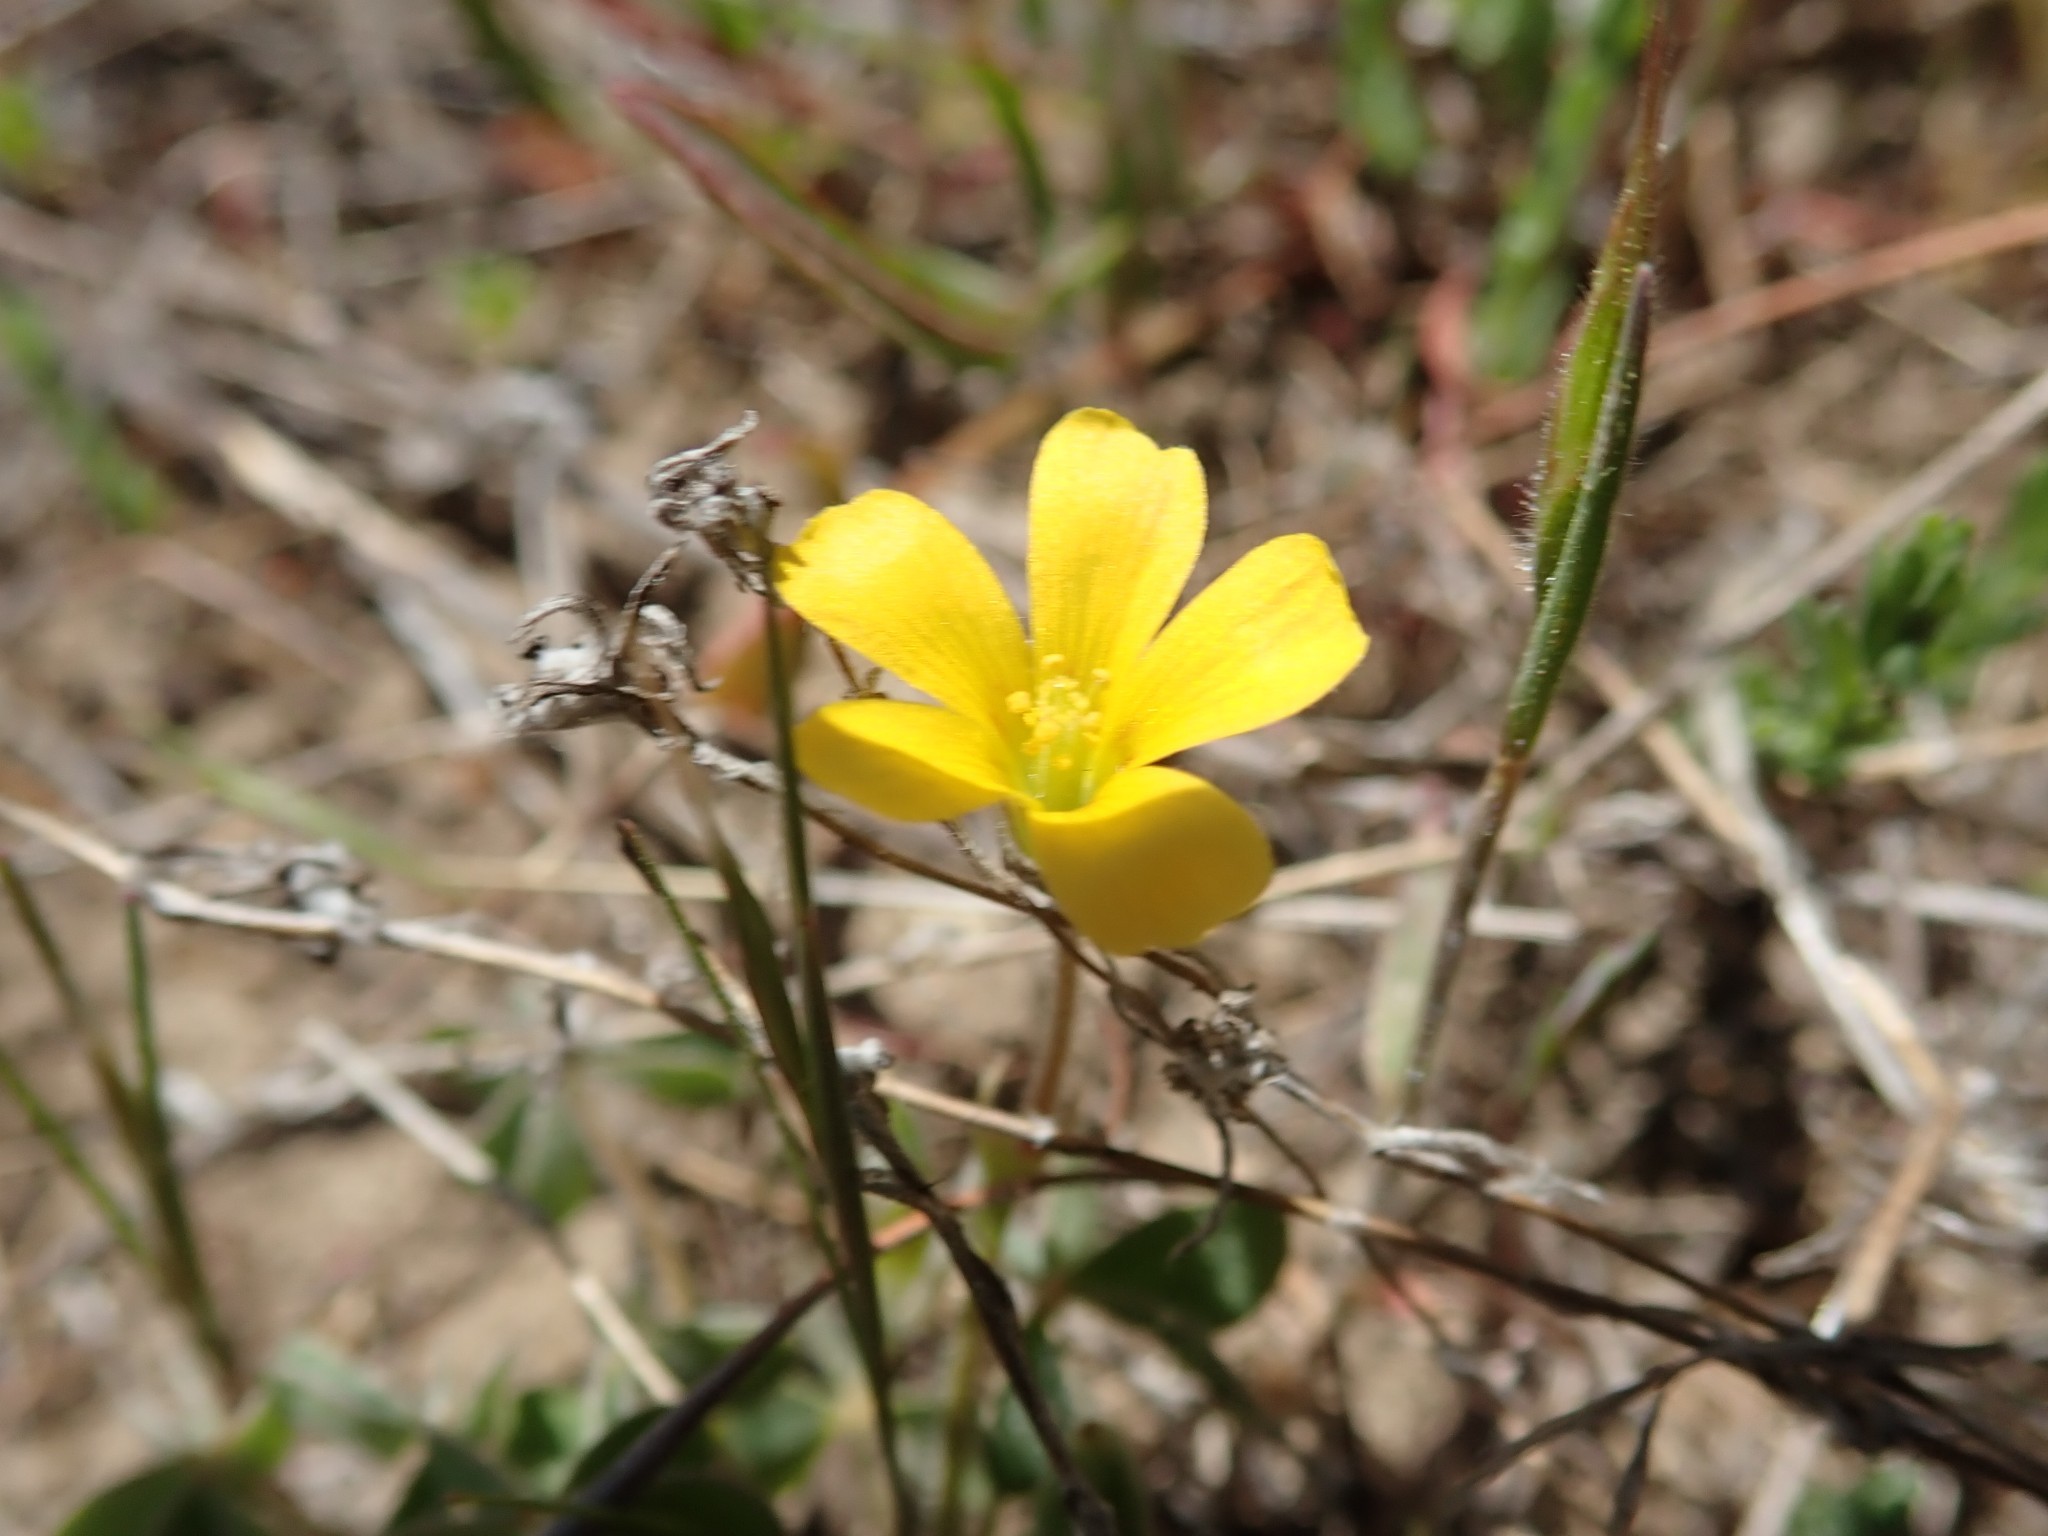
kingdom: Plantae
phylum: Tracheophyta
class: Magnoliopsida
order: Oxalidales
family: Oxalidaceae
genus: Oxalis
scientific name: Oxalis pilosa
